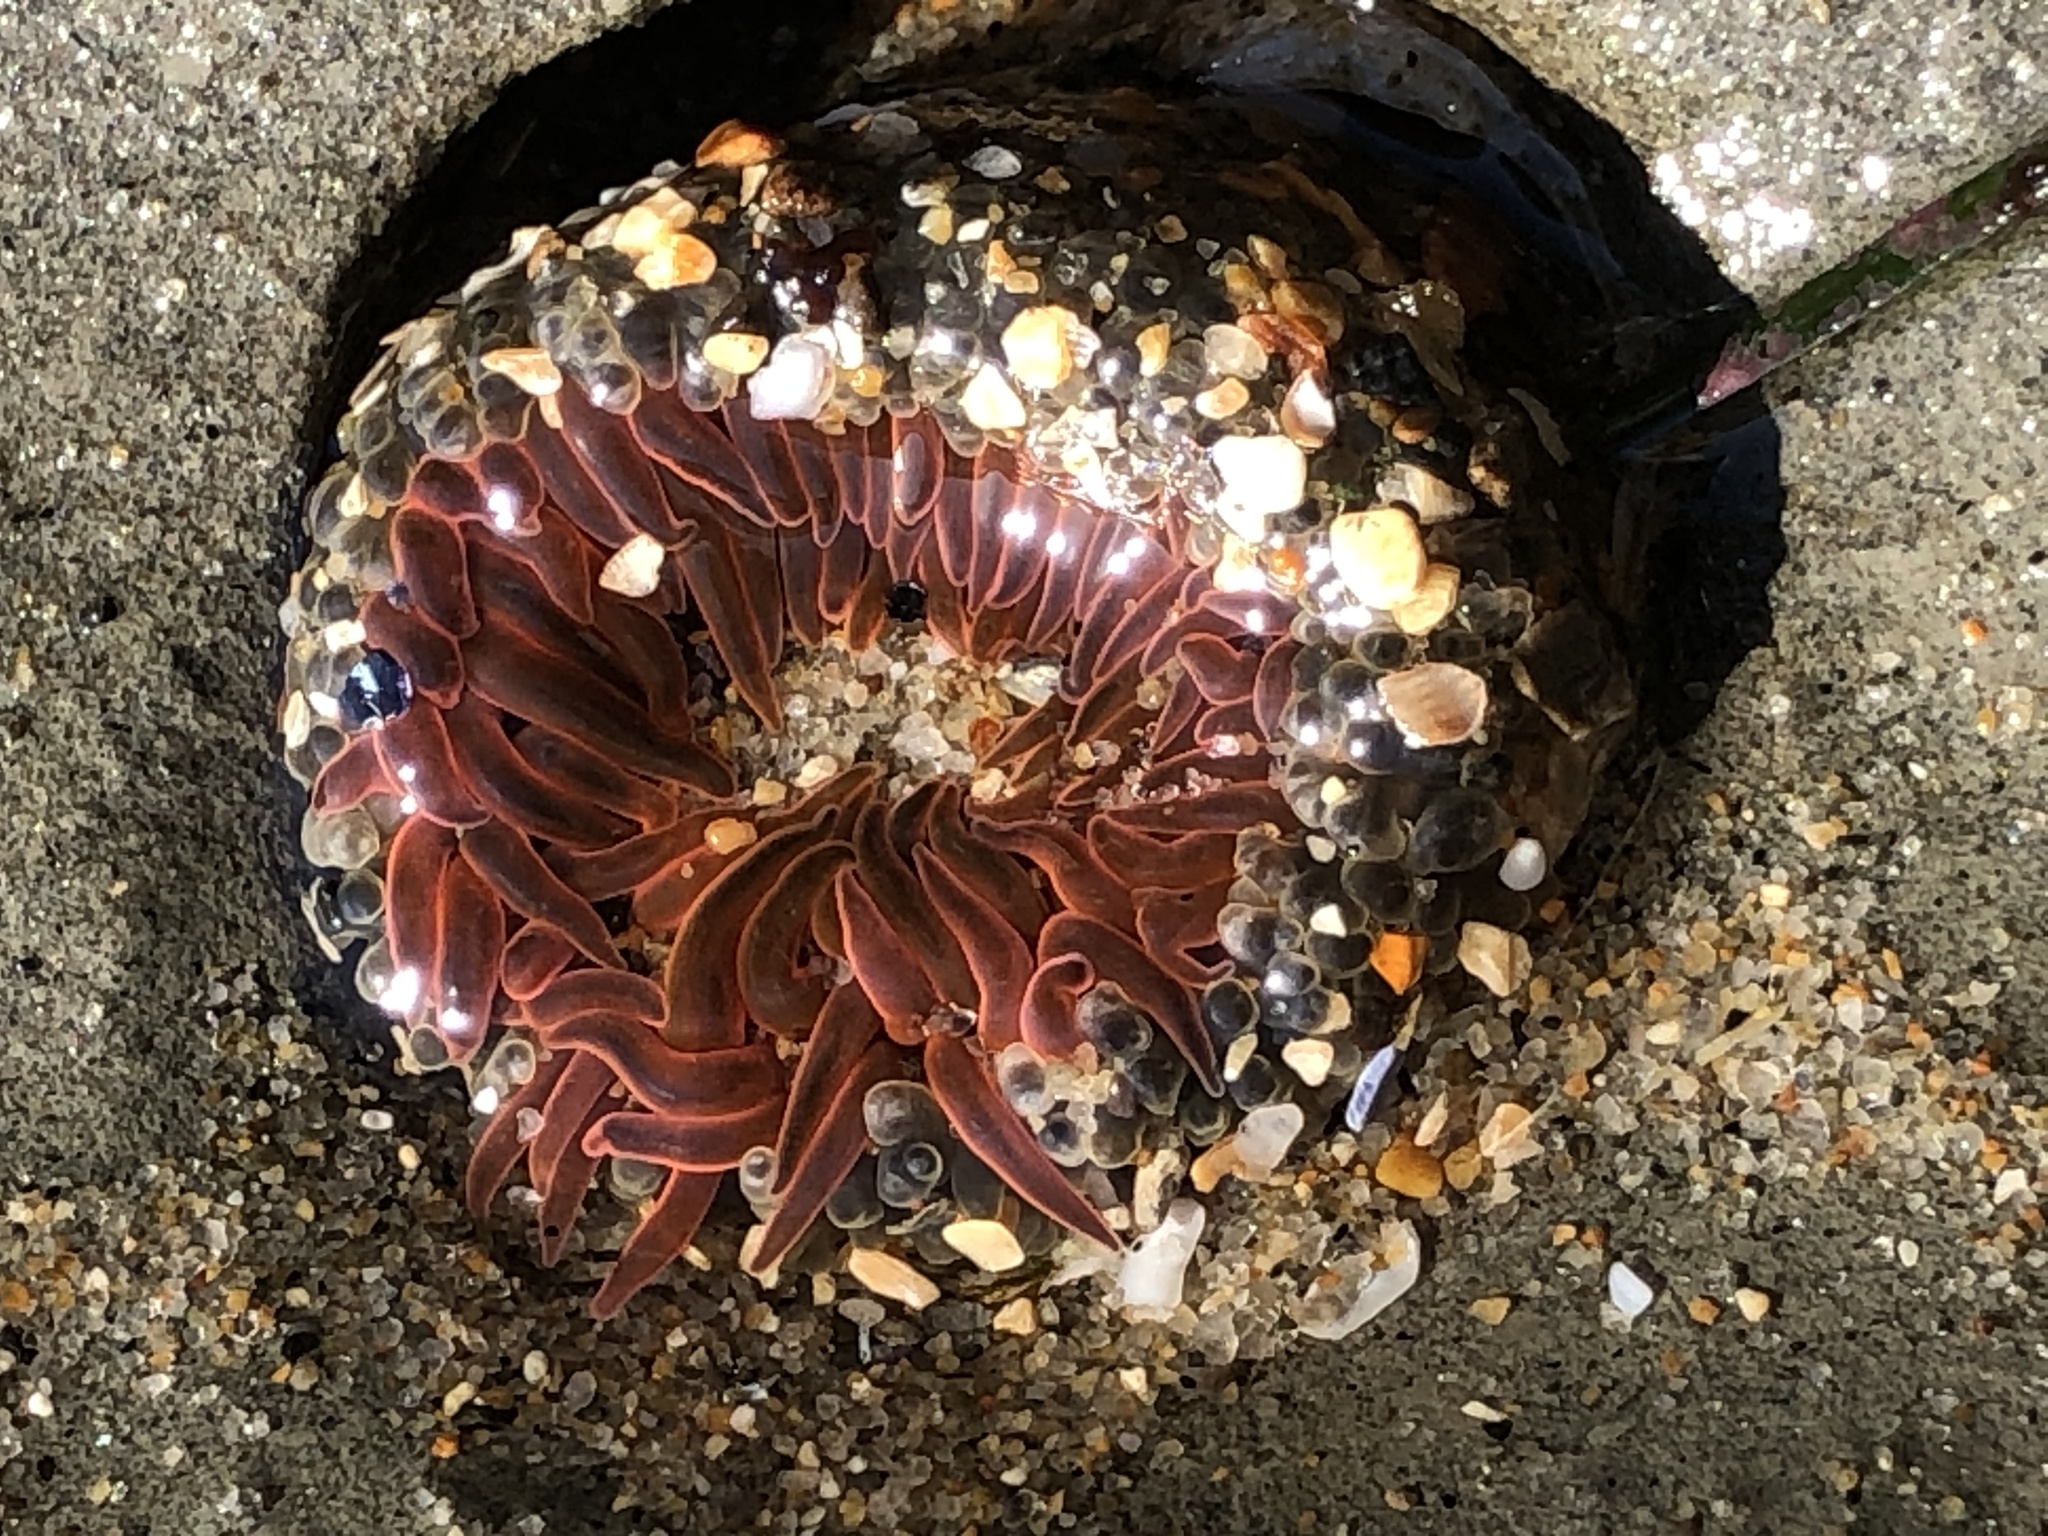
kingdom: Animalia
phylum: Cnidaria
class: Anthozoa
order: Actiniaria
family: Actiniidae
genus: Anthopleura
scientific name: Anthopleura artemisia
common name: Buried sea anemone
